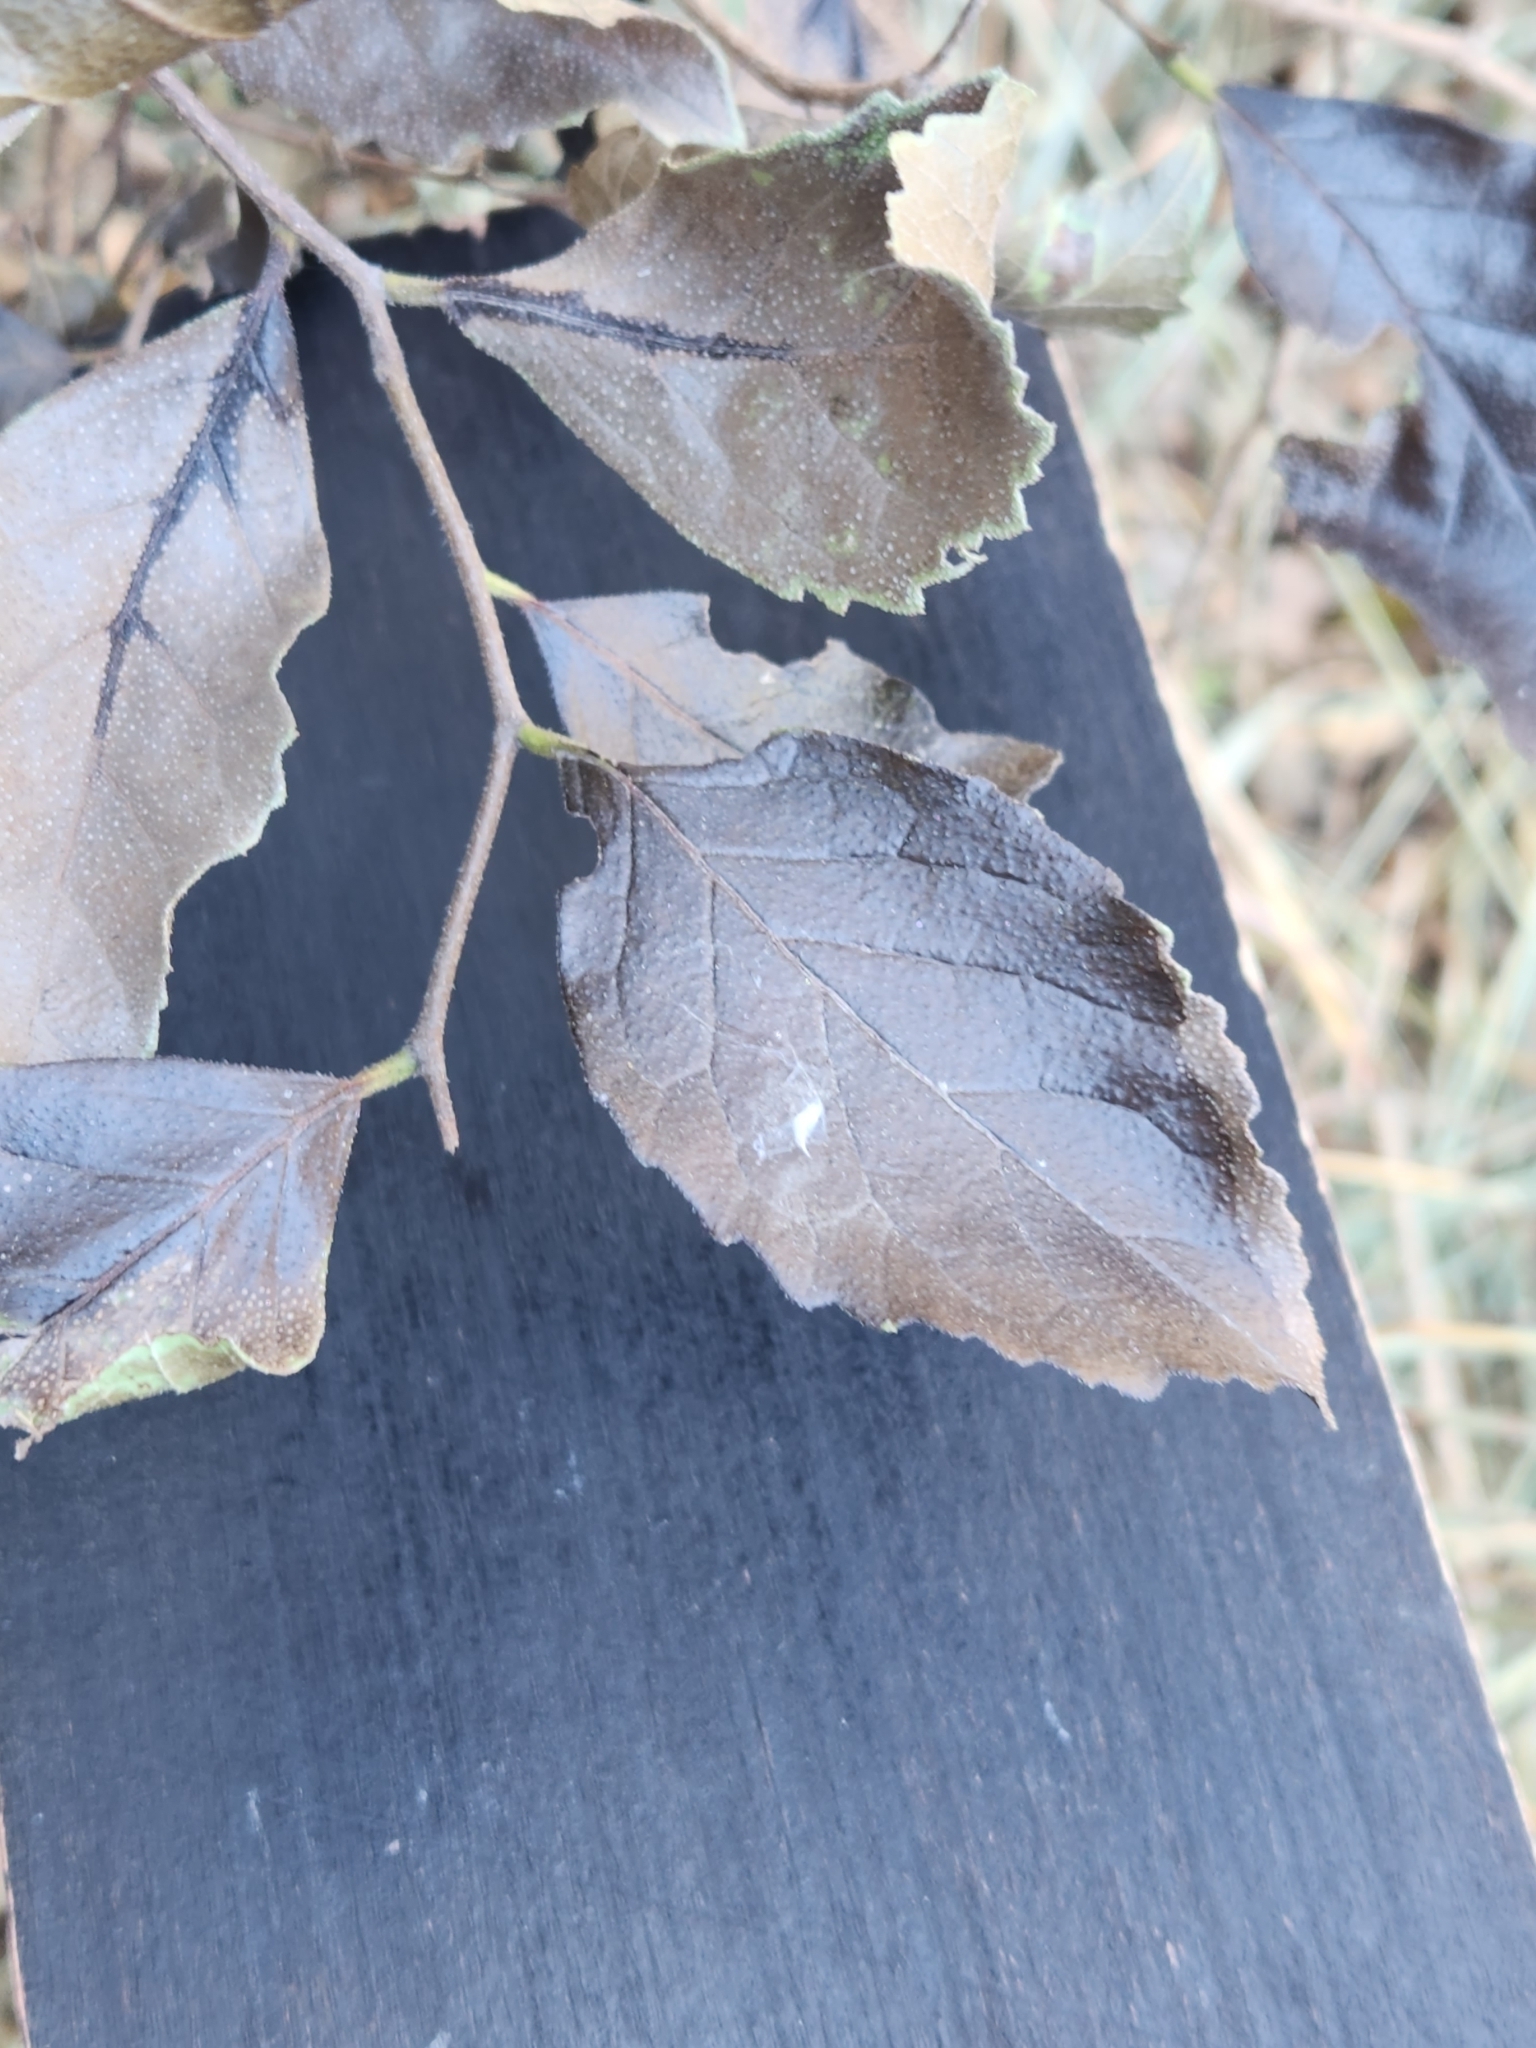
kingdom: Plantae
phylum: Tracheophyta
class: Magnoliopsida
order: Boraginales
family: Ehretiaceae
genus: Ehretia
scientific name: Ehretia anacua
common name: Sugarberry
